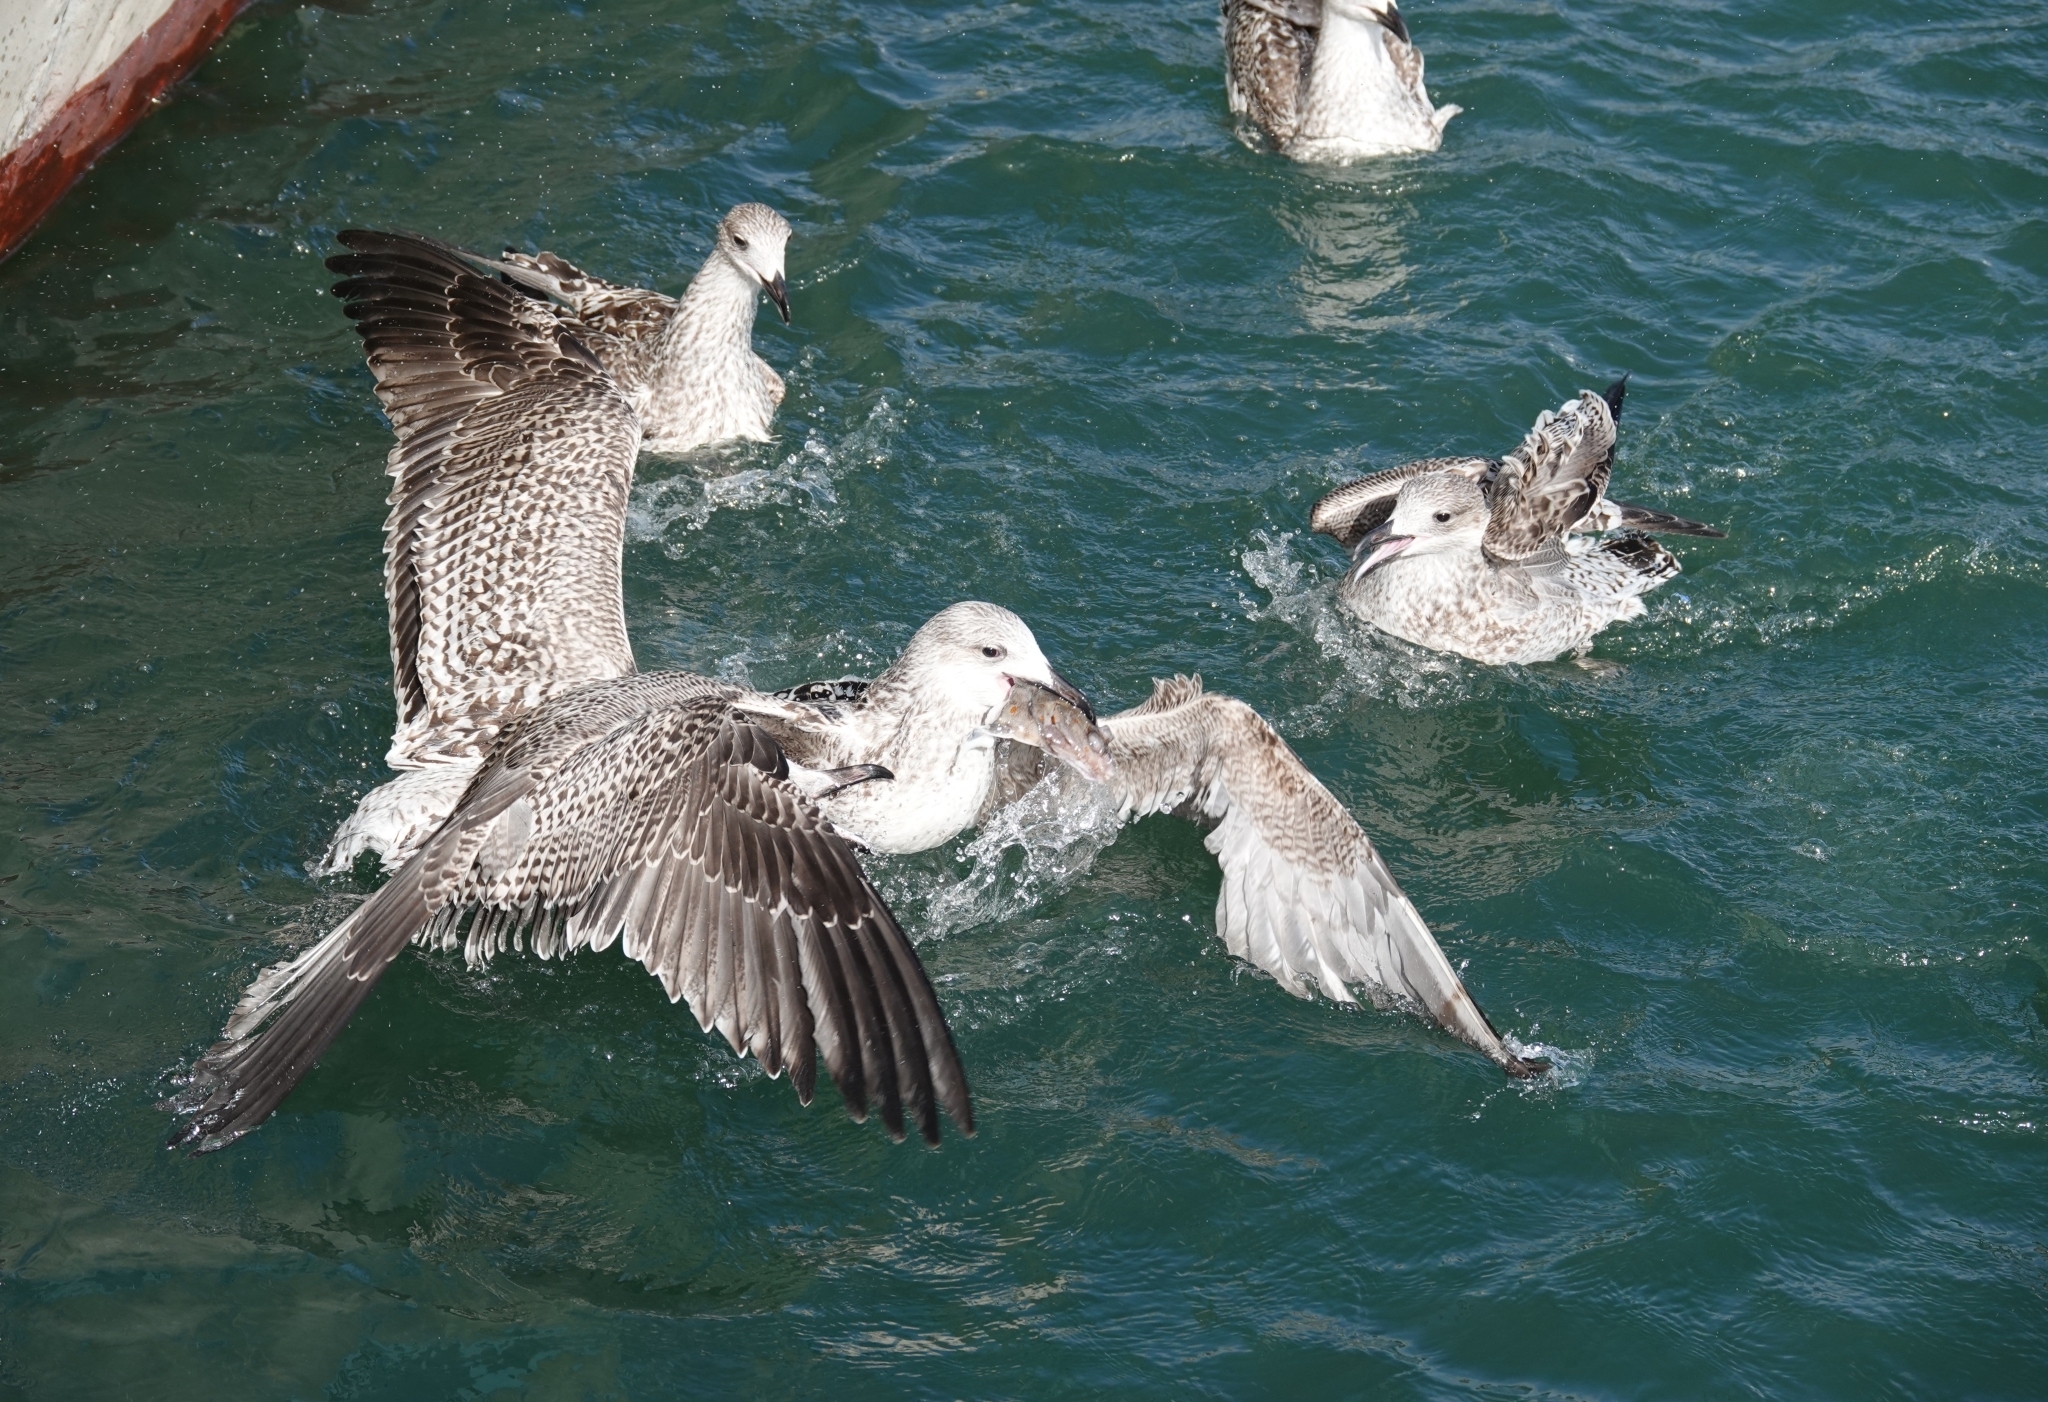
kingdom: Animalia
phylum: Chordata
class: Aves
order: Charadriiformes
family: Laridae
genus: Larus
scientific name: Larus argentatus
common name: Herring gull
